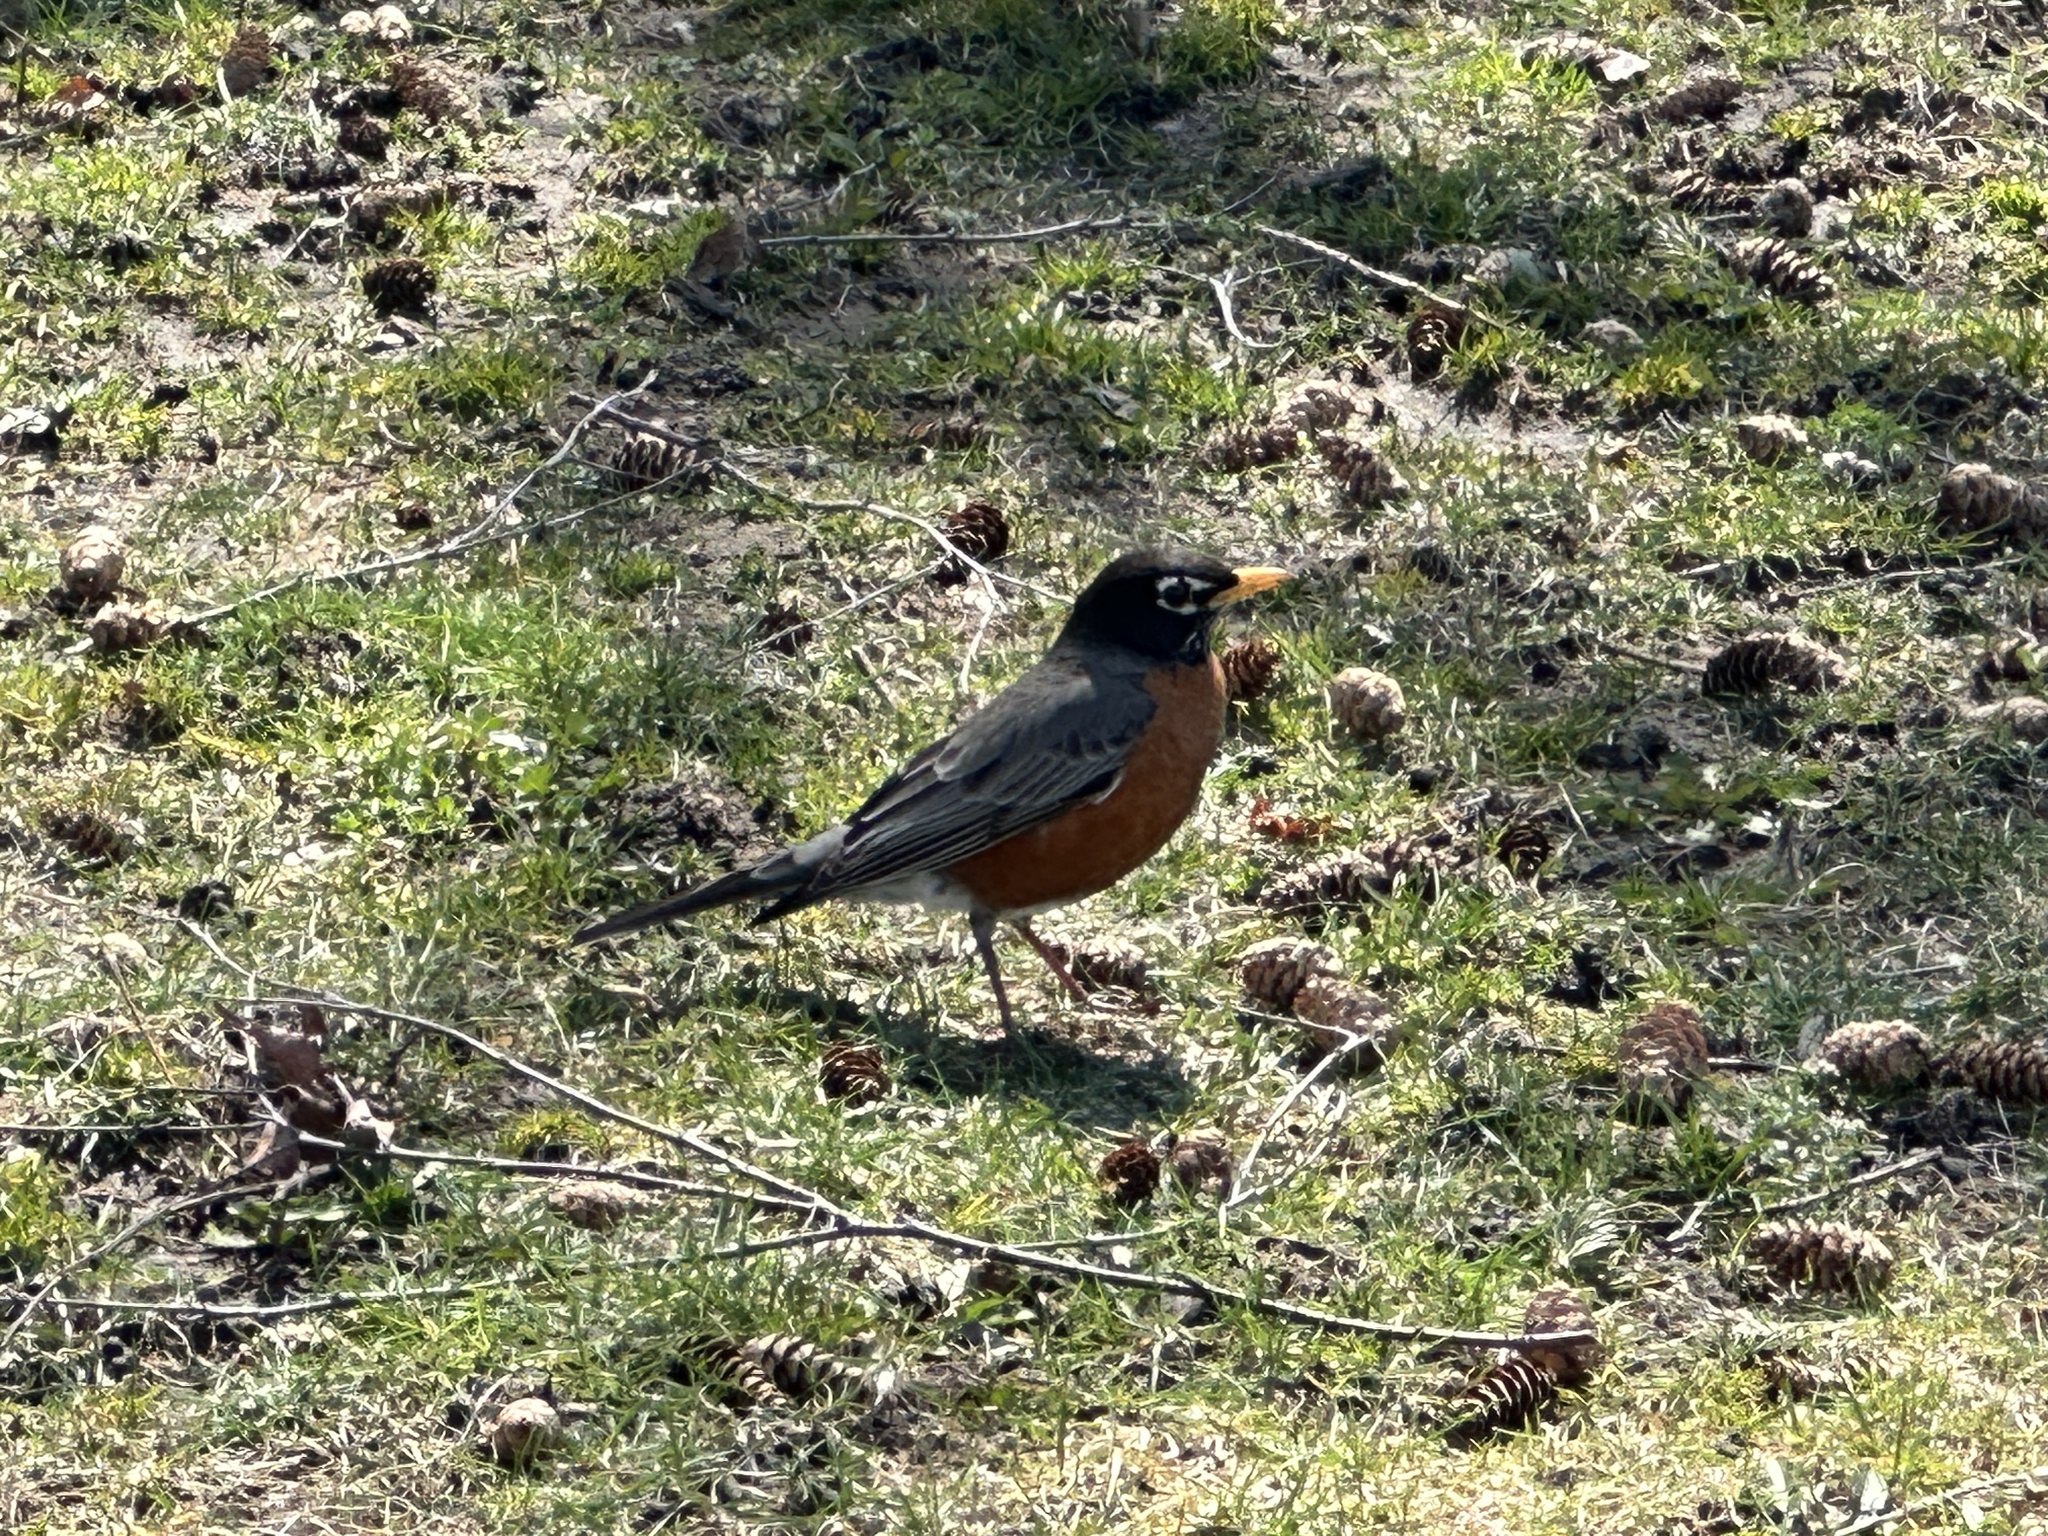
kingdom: Animalia
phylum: Chordata
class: Aves
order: Passeriformes
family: Turdidae
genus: Turdus
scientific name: Turdus migratorius
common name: American robin
